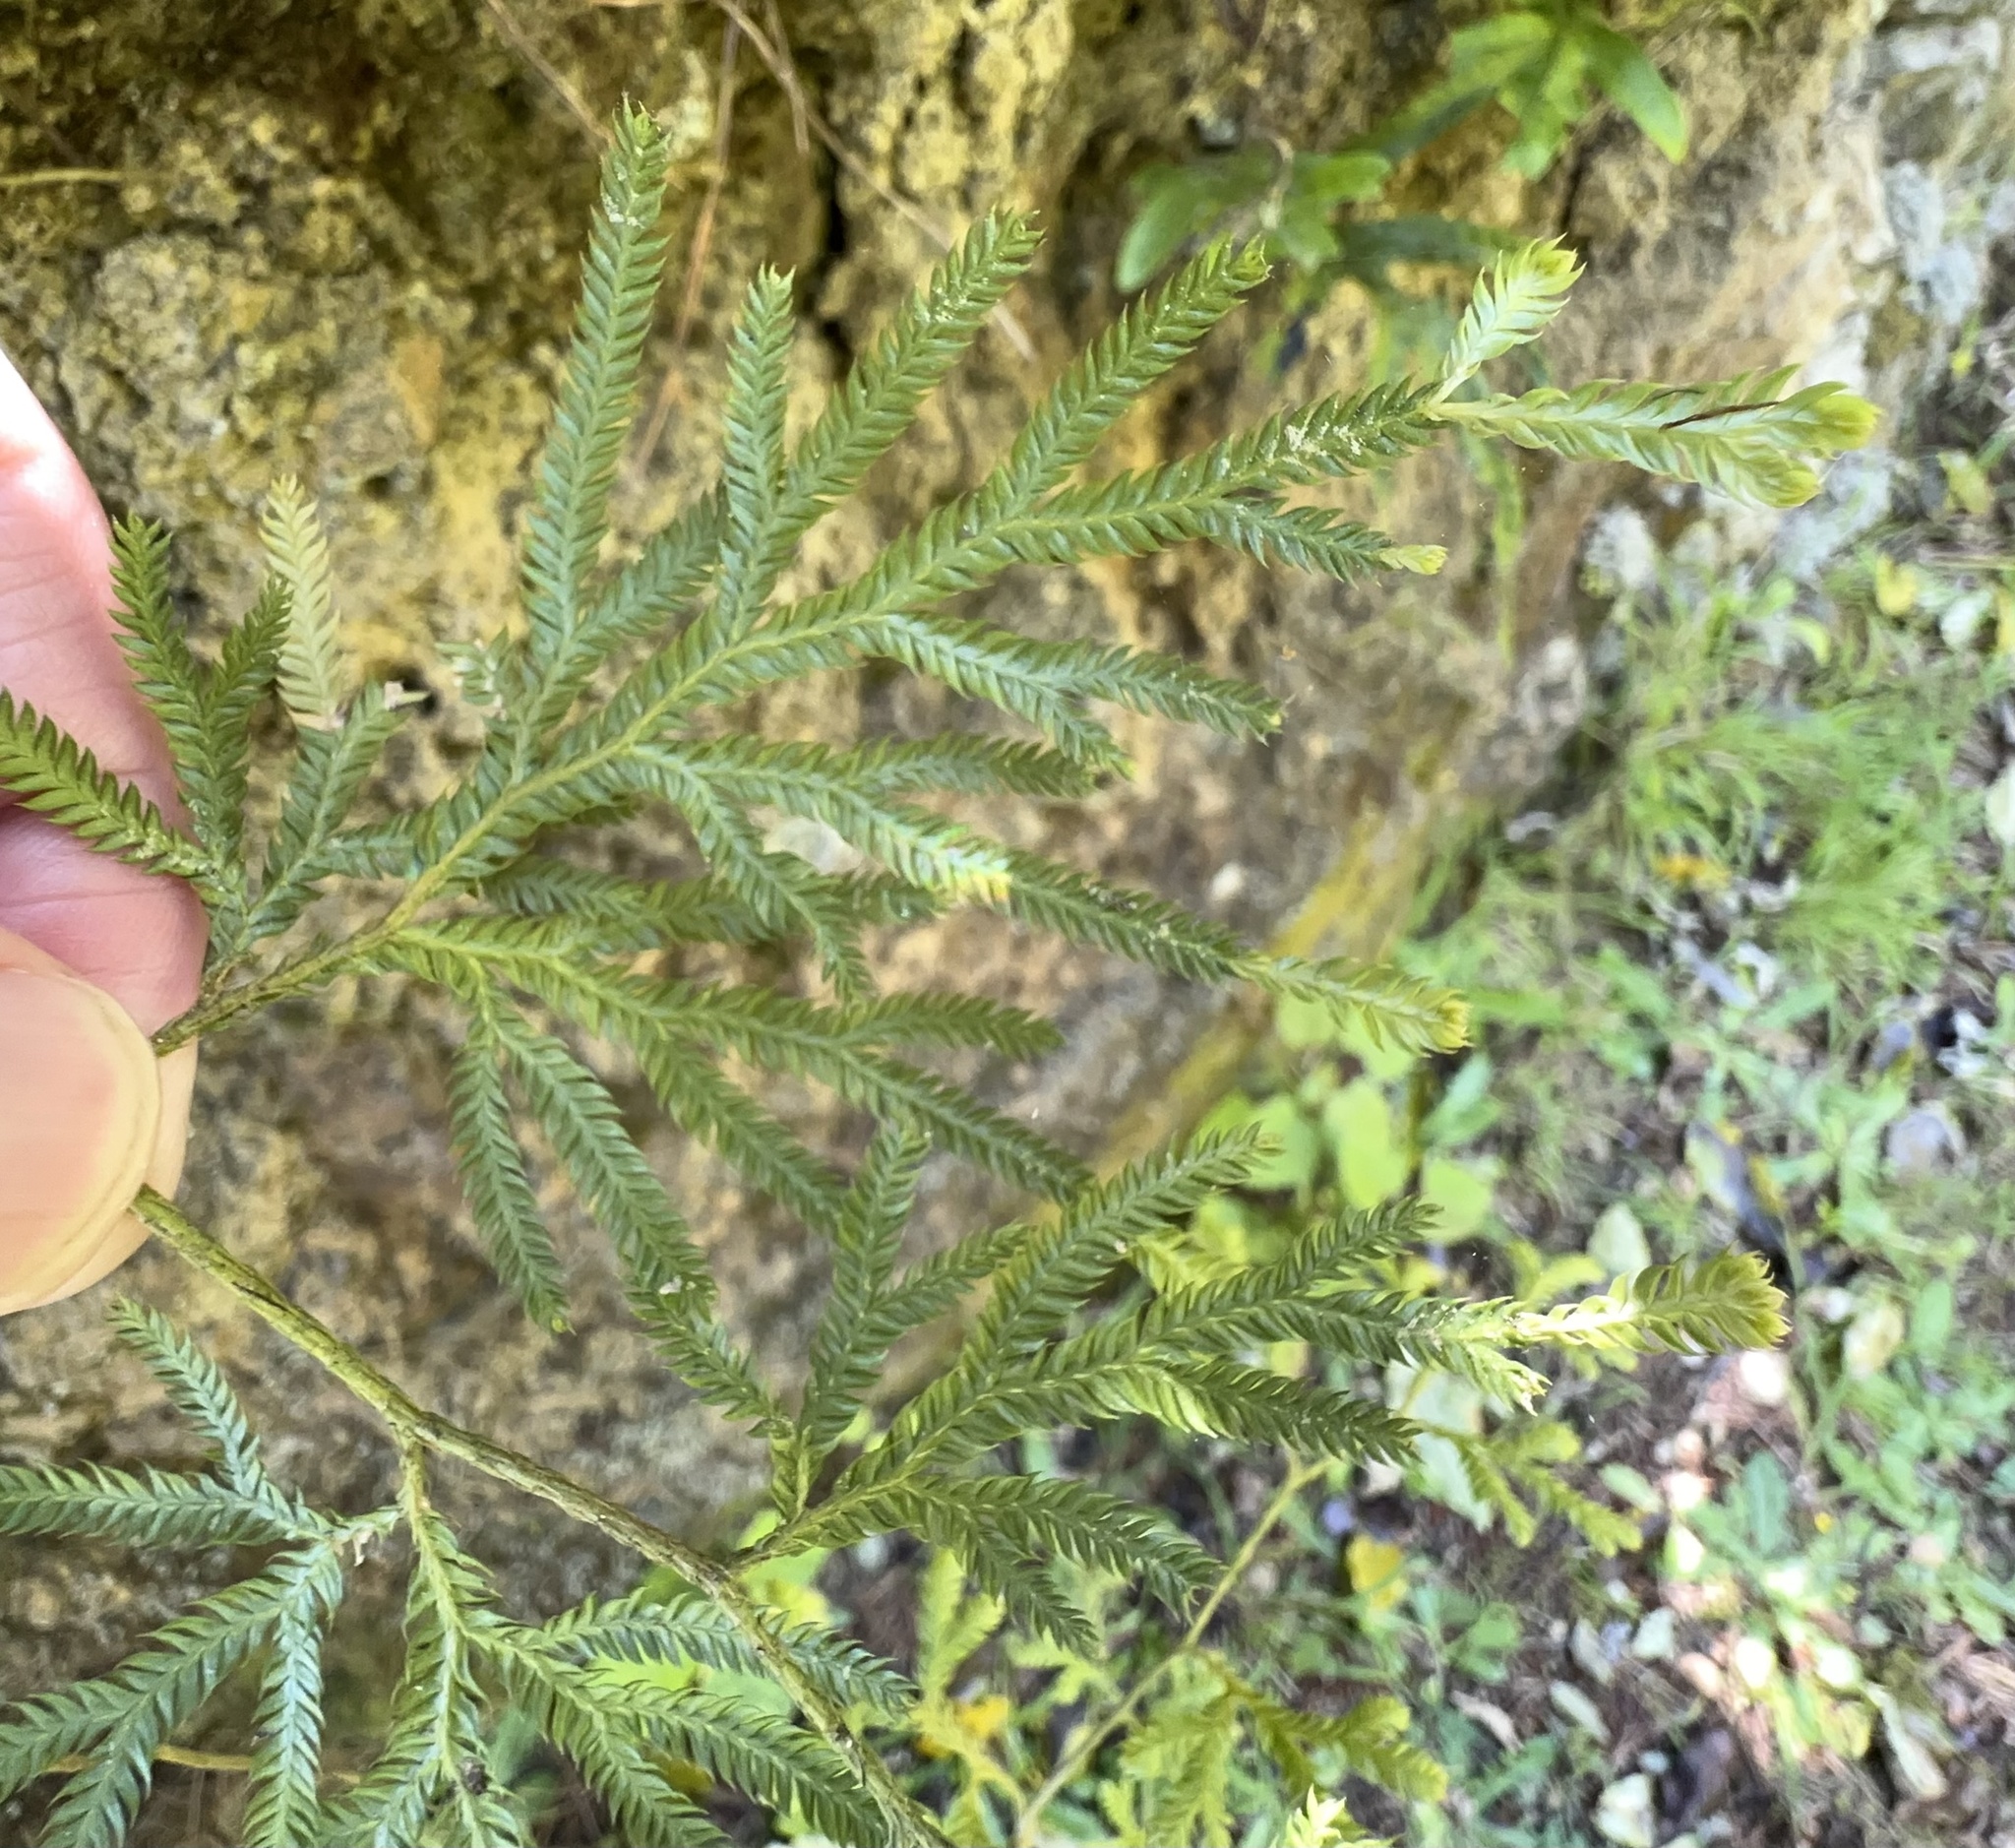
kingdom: Plantae
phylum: Tracheophyta
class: Lycopodiopsida
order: Lycopodiales
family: Lycopodiaceae
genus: Lycopodium
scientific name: Lycopodium volubile
